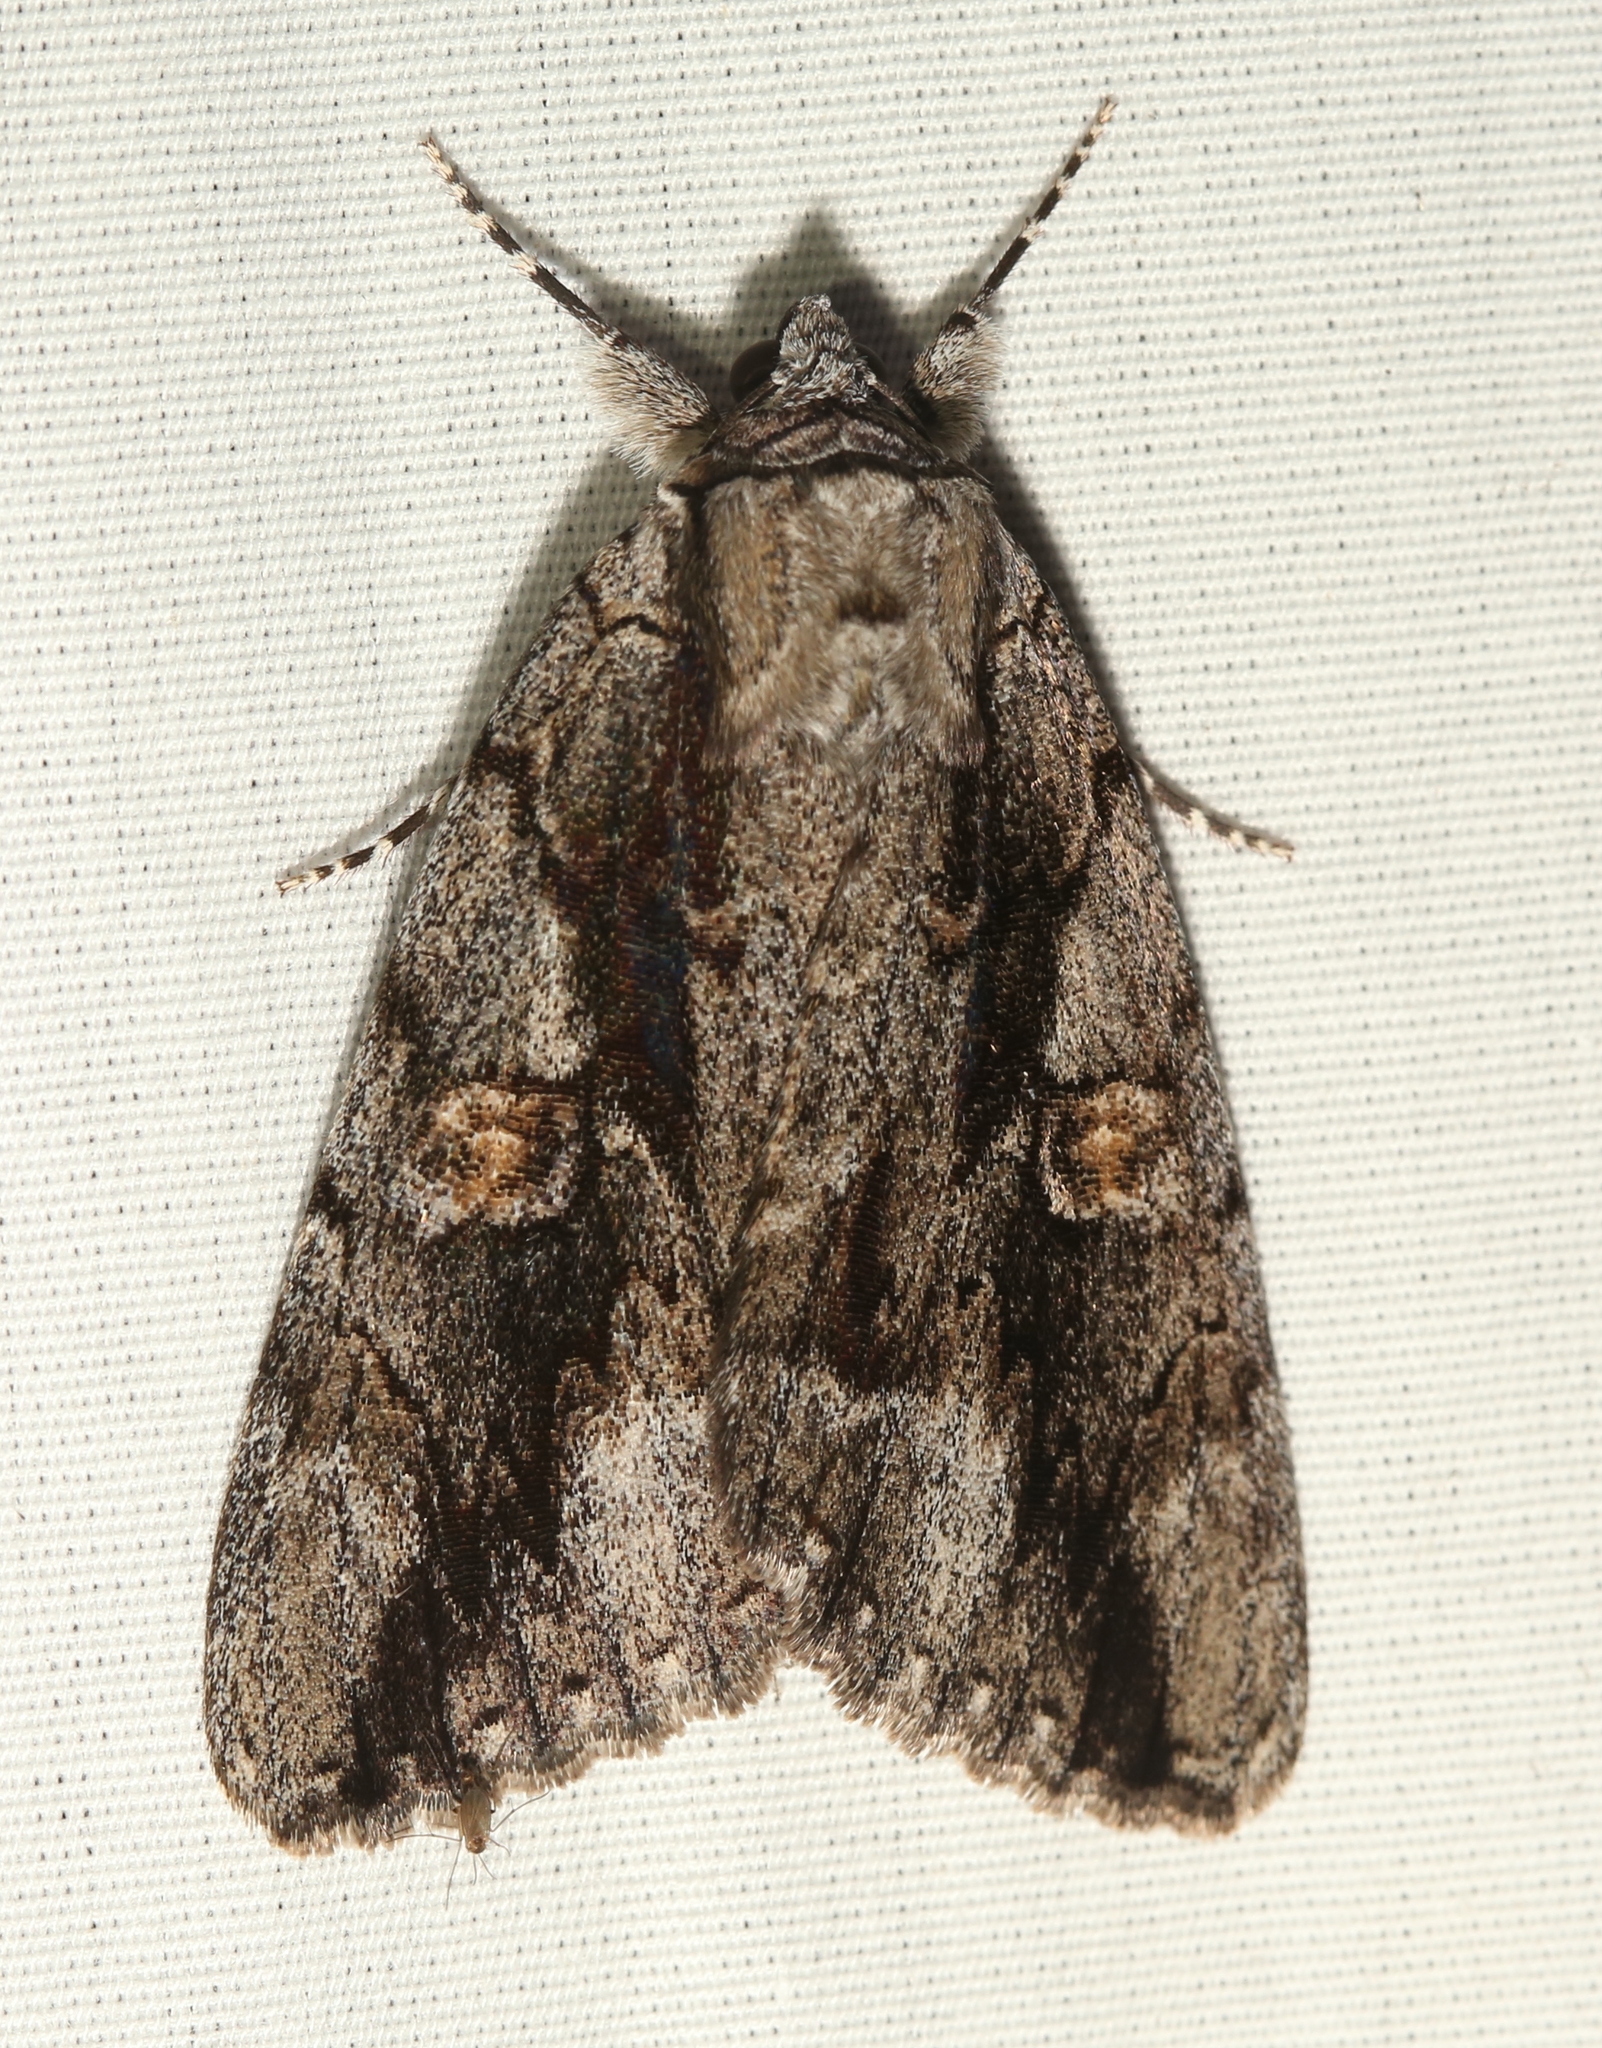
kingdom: Animalia
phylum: Arthropoda
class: Insecta
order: Lepidoptera
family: Erebidae
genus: Catocala
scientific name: Catocala flebilis
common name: Mournful underwing
